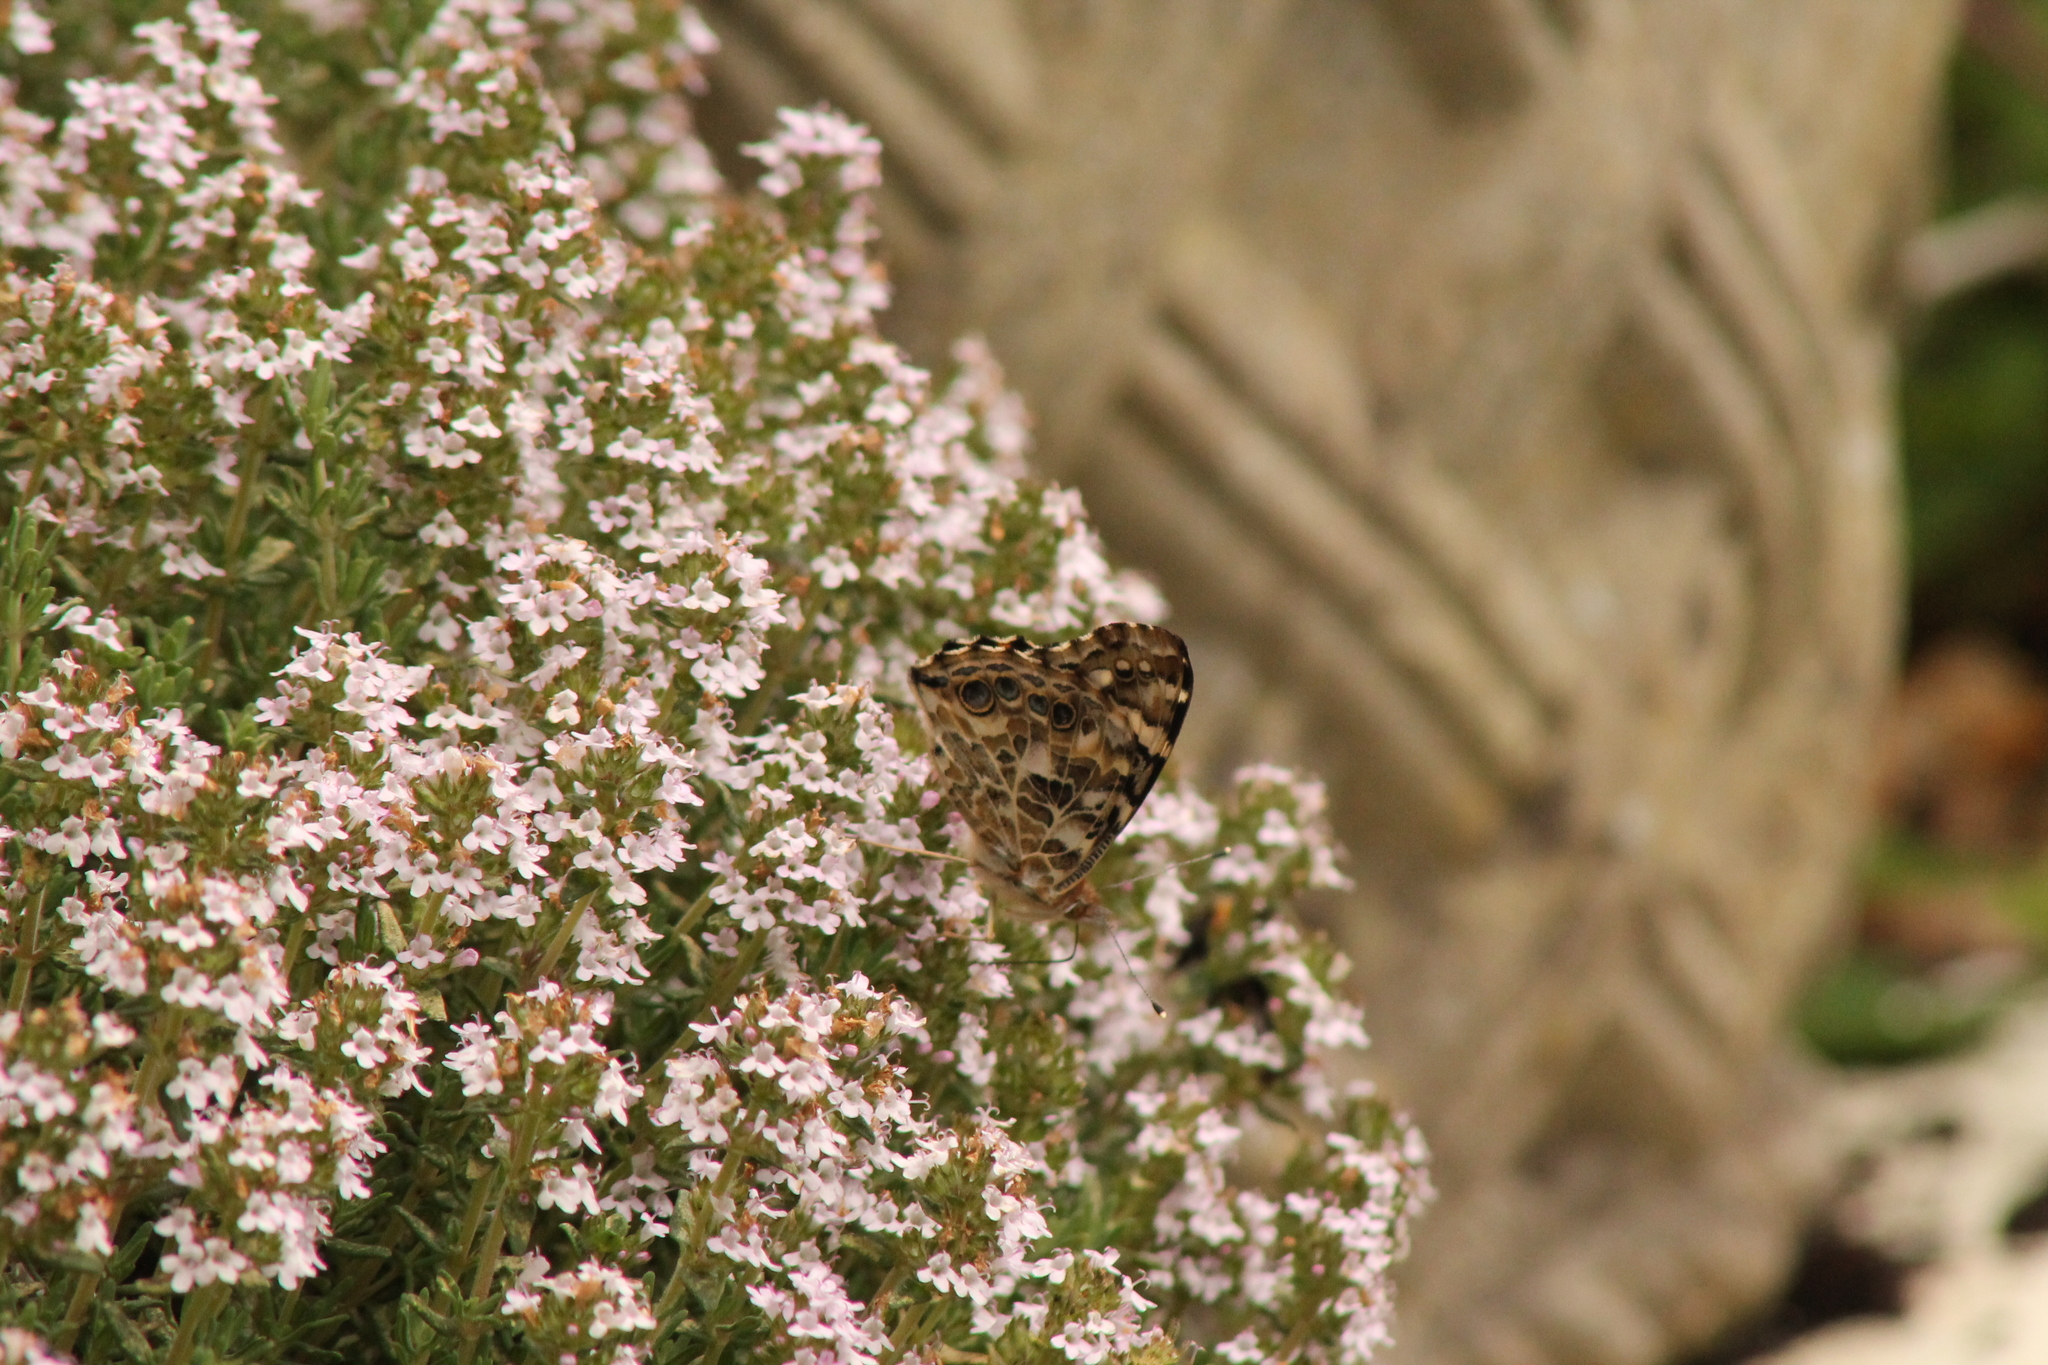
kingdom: Animalia
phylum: Arthropoda
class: Insecta
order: Lepidoptera
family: Nymphalidae
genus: Vanessa
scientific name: Vanessa cardui
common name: Painted lady
